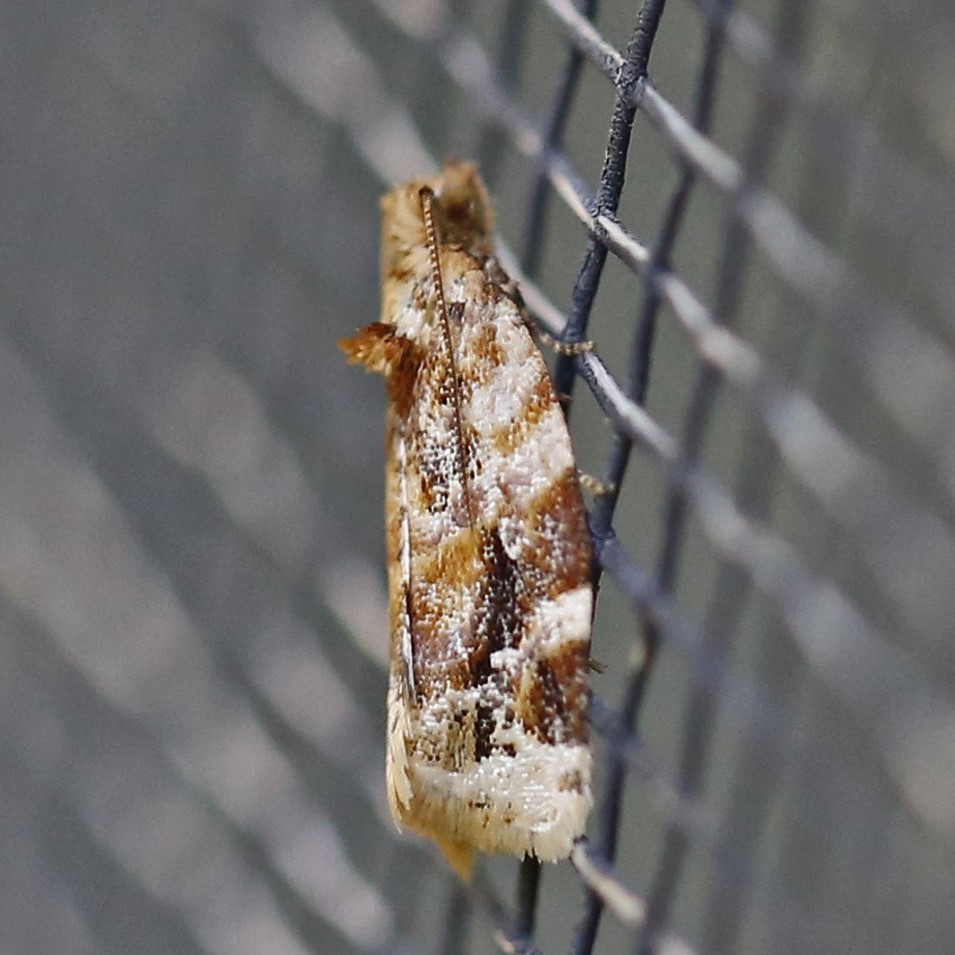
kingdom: Animalia
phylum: Arthropoda
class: Insecta
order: Lepidoptera
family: Tortricidae
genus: Argyrotaenia
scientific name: Argyrotaenia velutinana
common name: Red-banded leafroller moth
